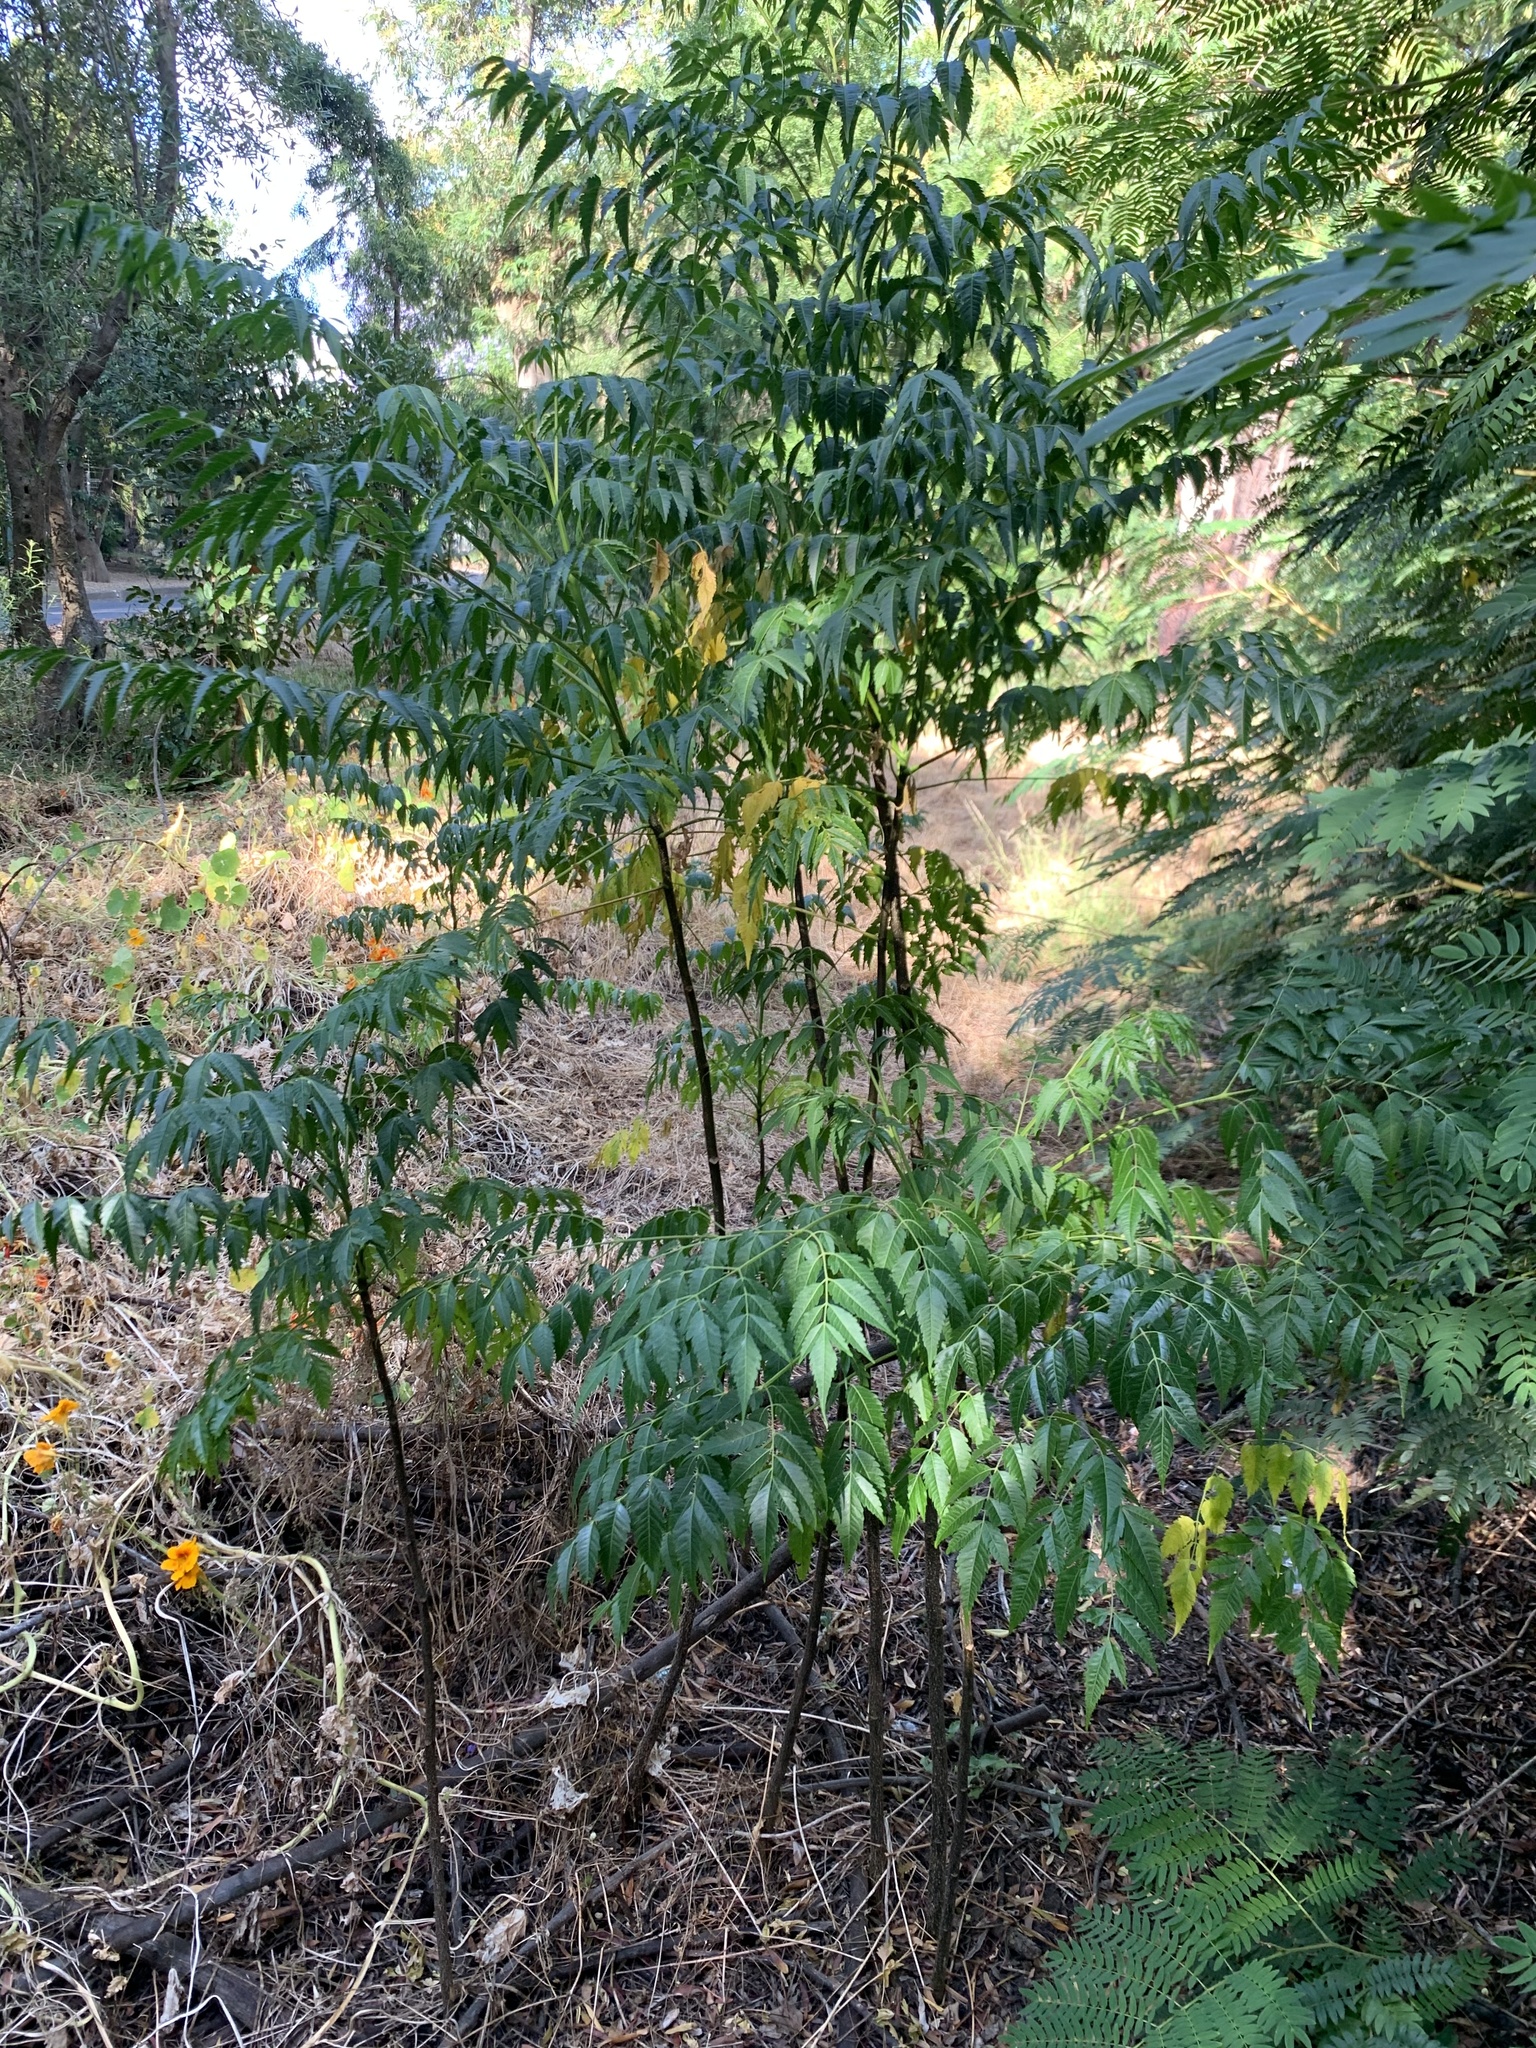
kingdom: Plantae
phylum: Tracheophyta
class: Magnoliopsida
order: Sapindales
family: Meliaceae
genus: Melia
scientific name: Melia azedarach
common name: Chinaberrytree
